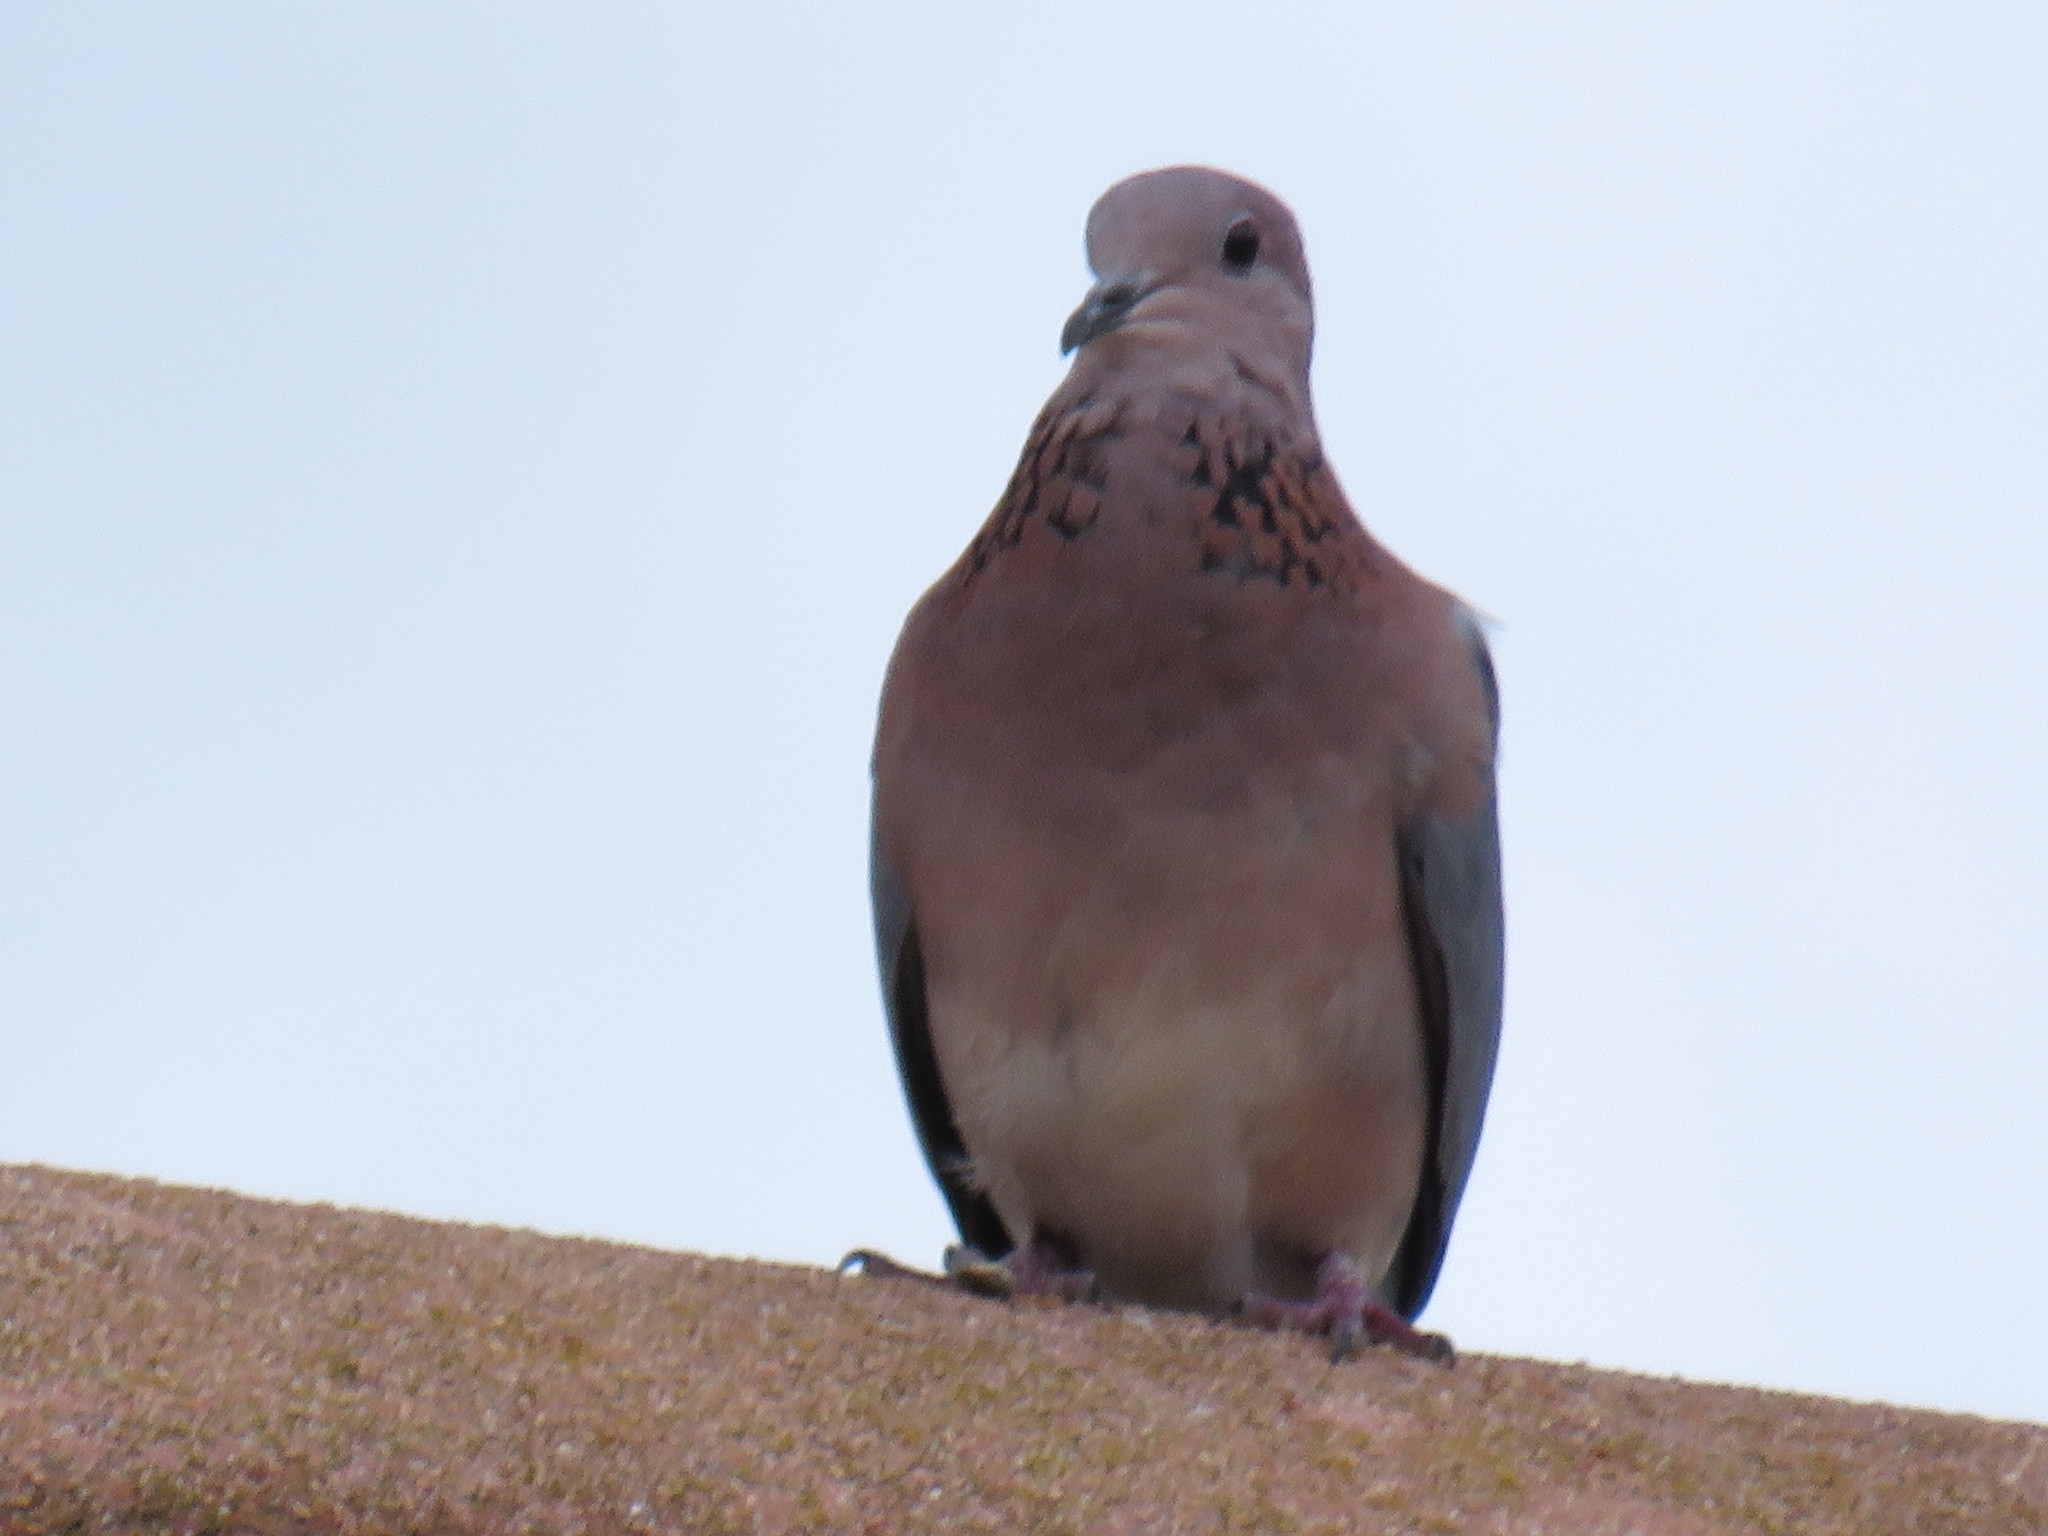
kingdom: Animalia
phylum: Chordata
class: Aves
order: Columbiformes
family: Columbidae
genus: Spilopelia
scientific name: Spilopelia senegalensis
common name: Laughing dove
